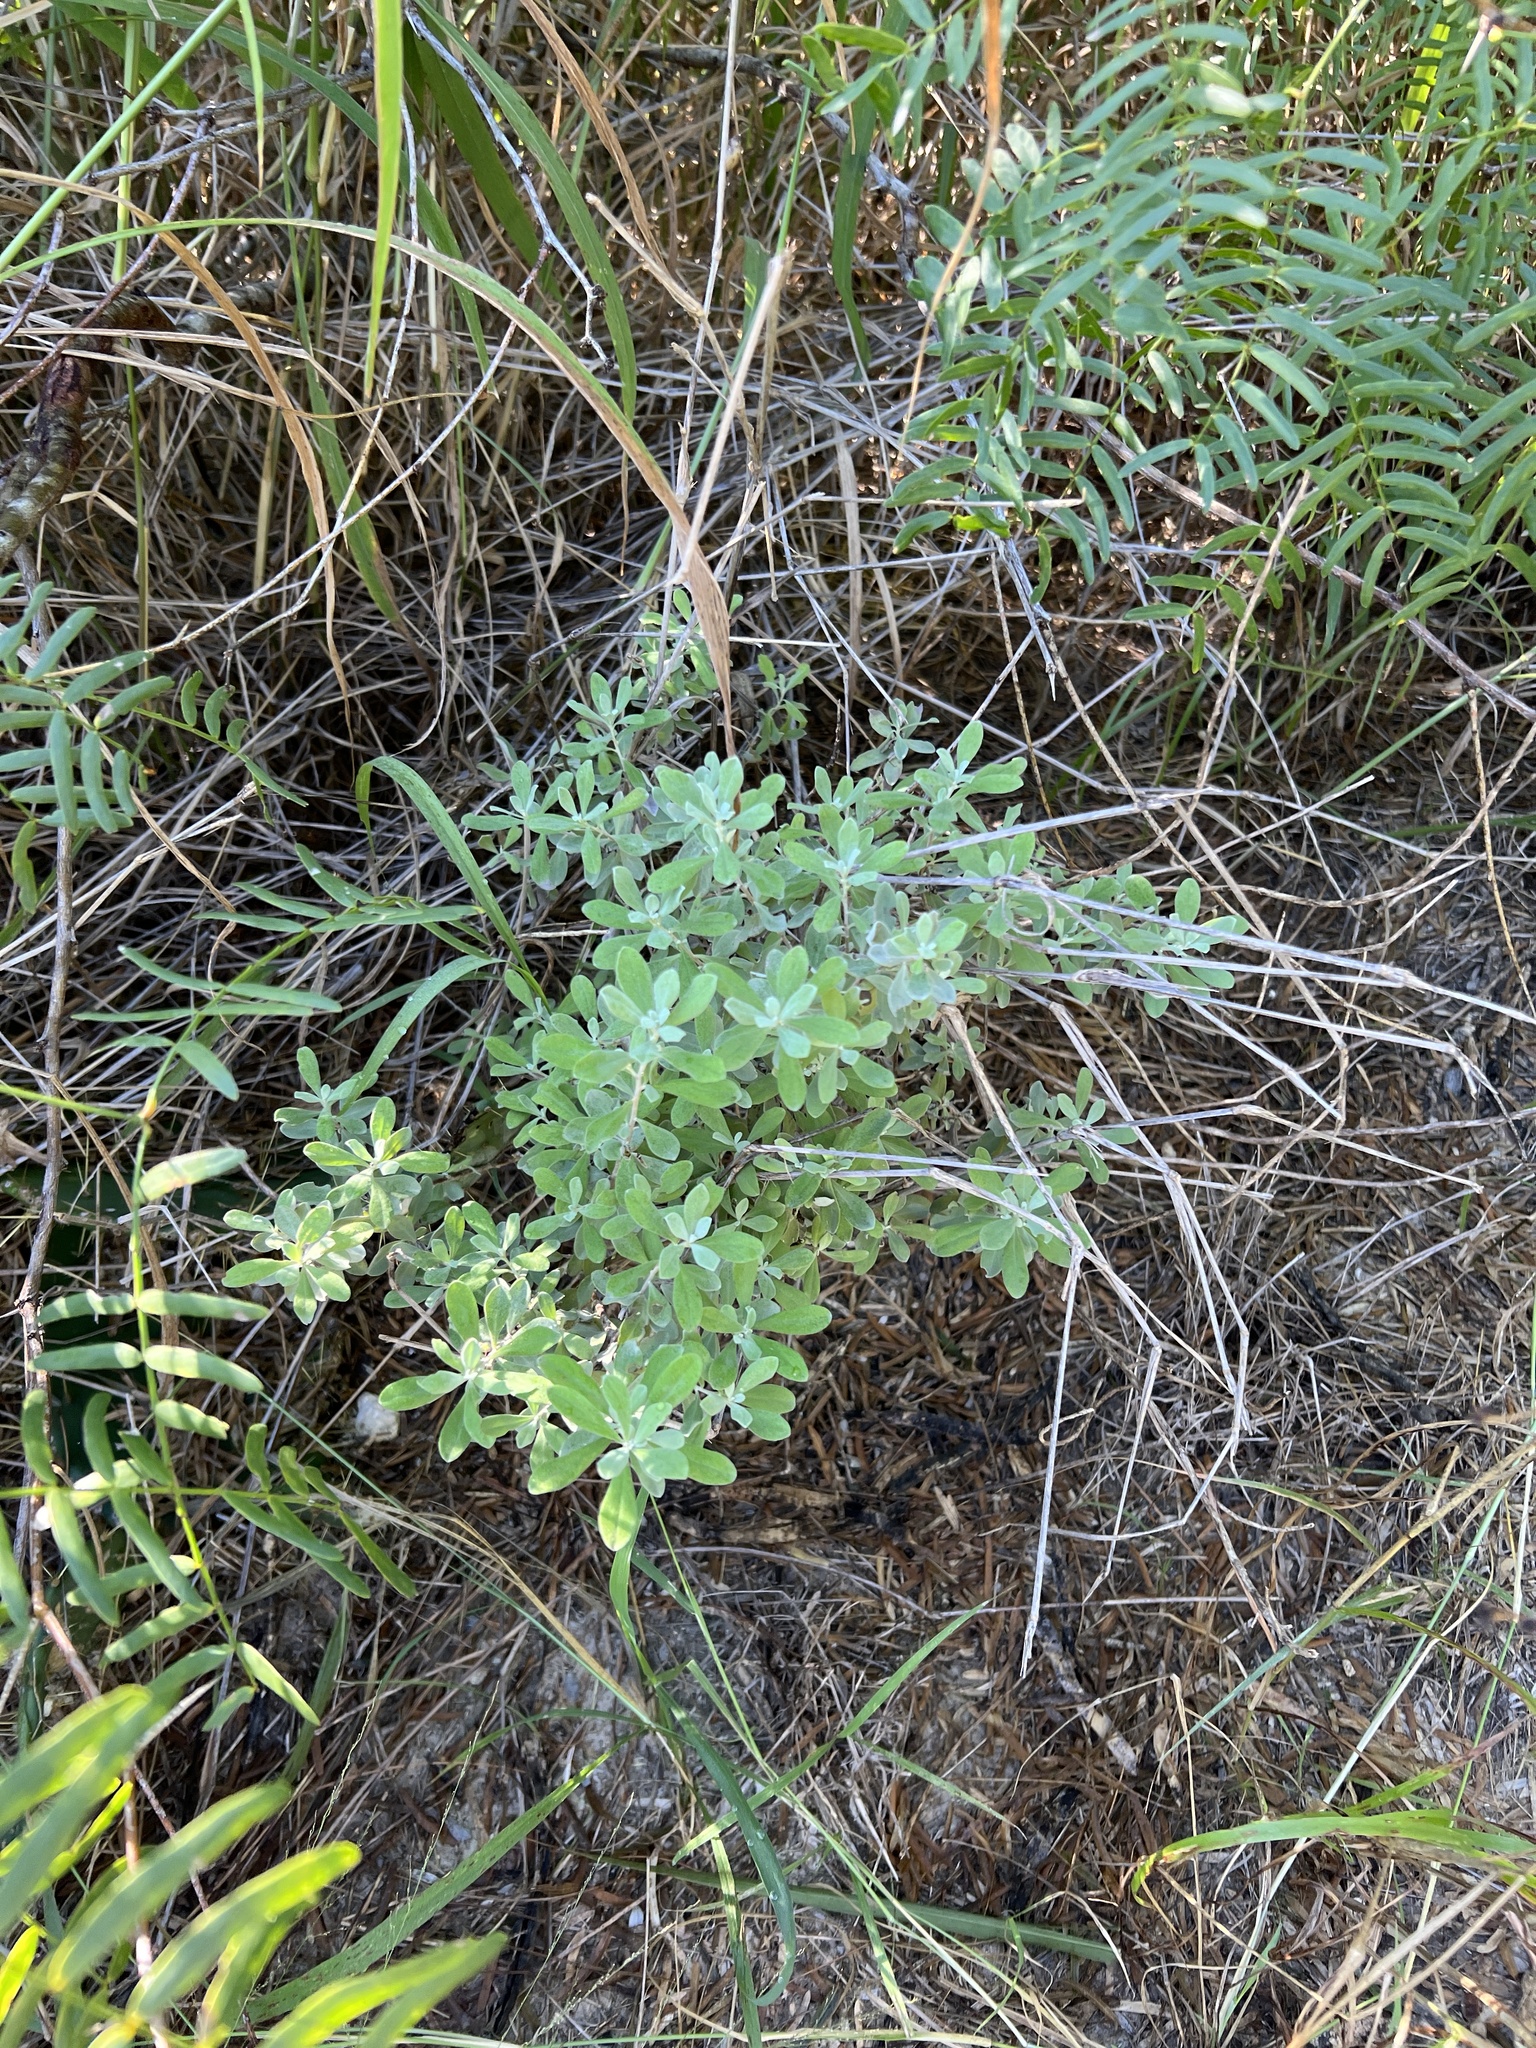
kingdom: Plantae
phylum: Tracheophyta
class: Magnoliopsida
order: Lamiales
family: Scrophulariaceae
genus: Leucophyllum
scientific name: Leucophyllum frutescens
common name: Texas silverleaf
